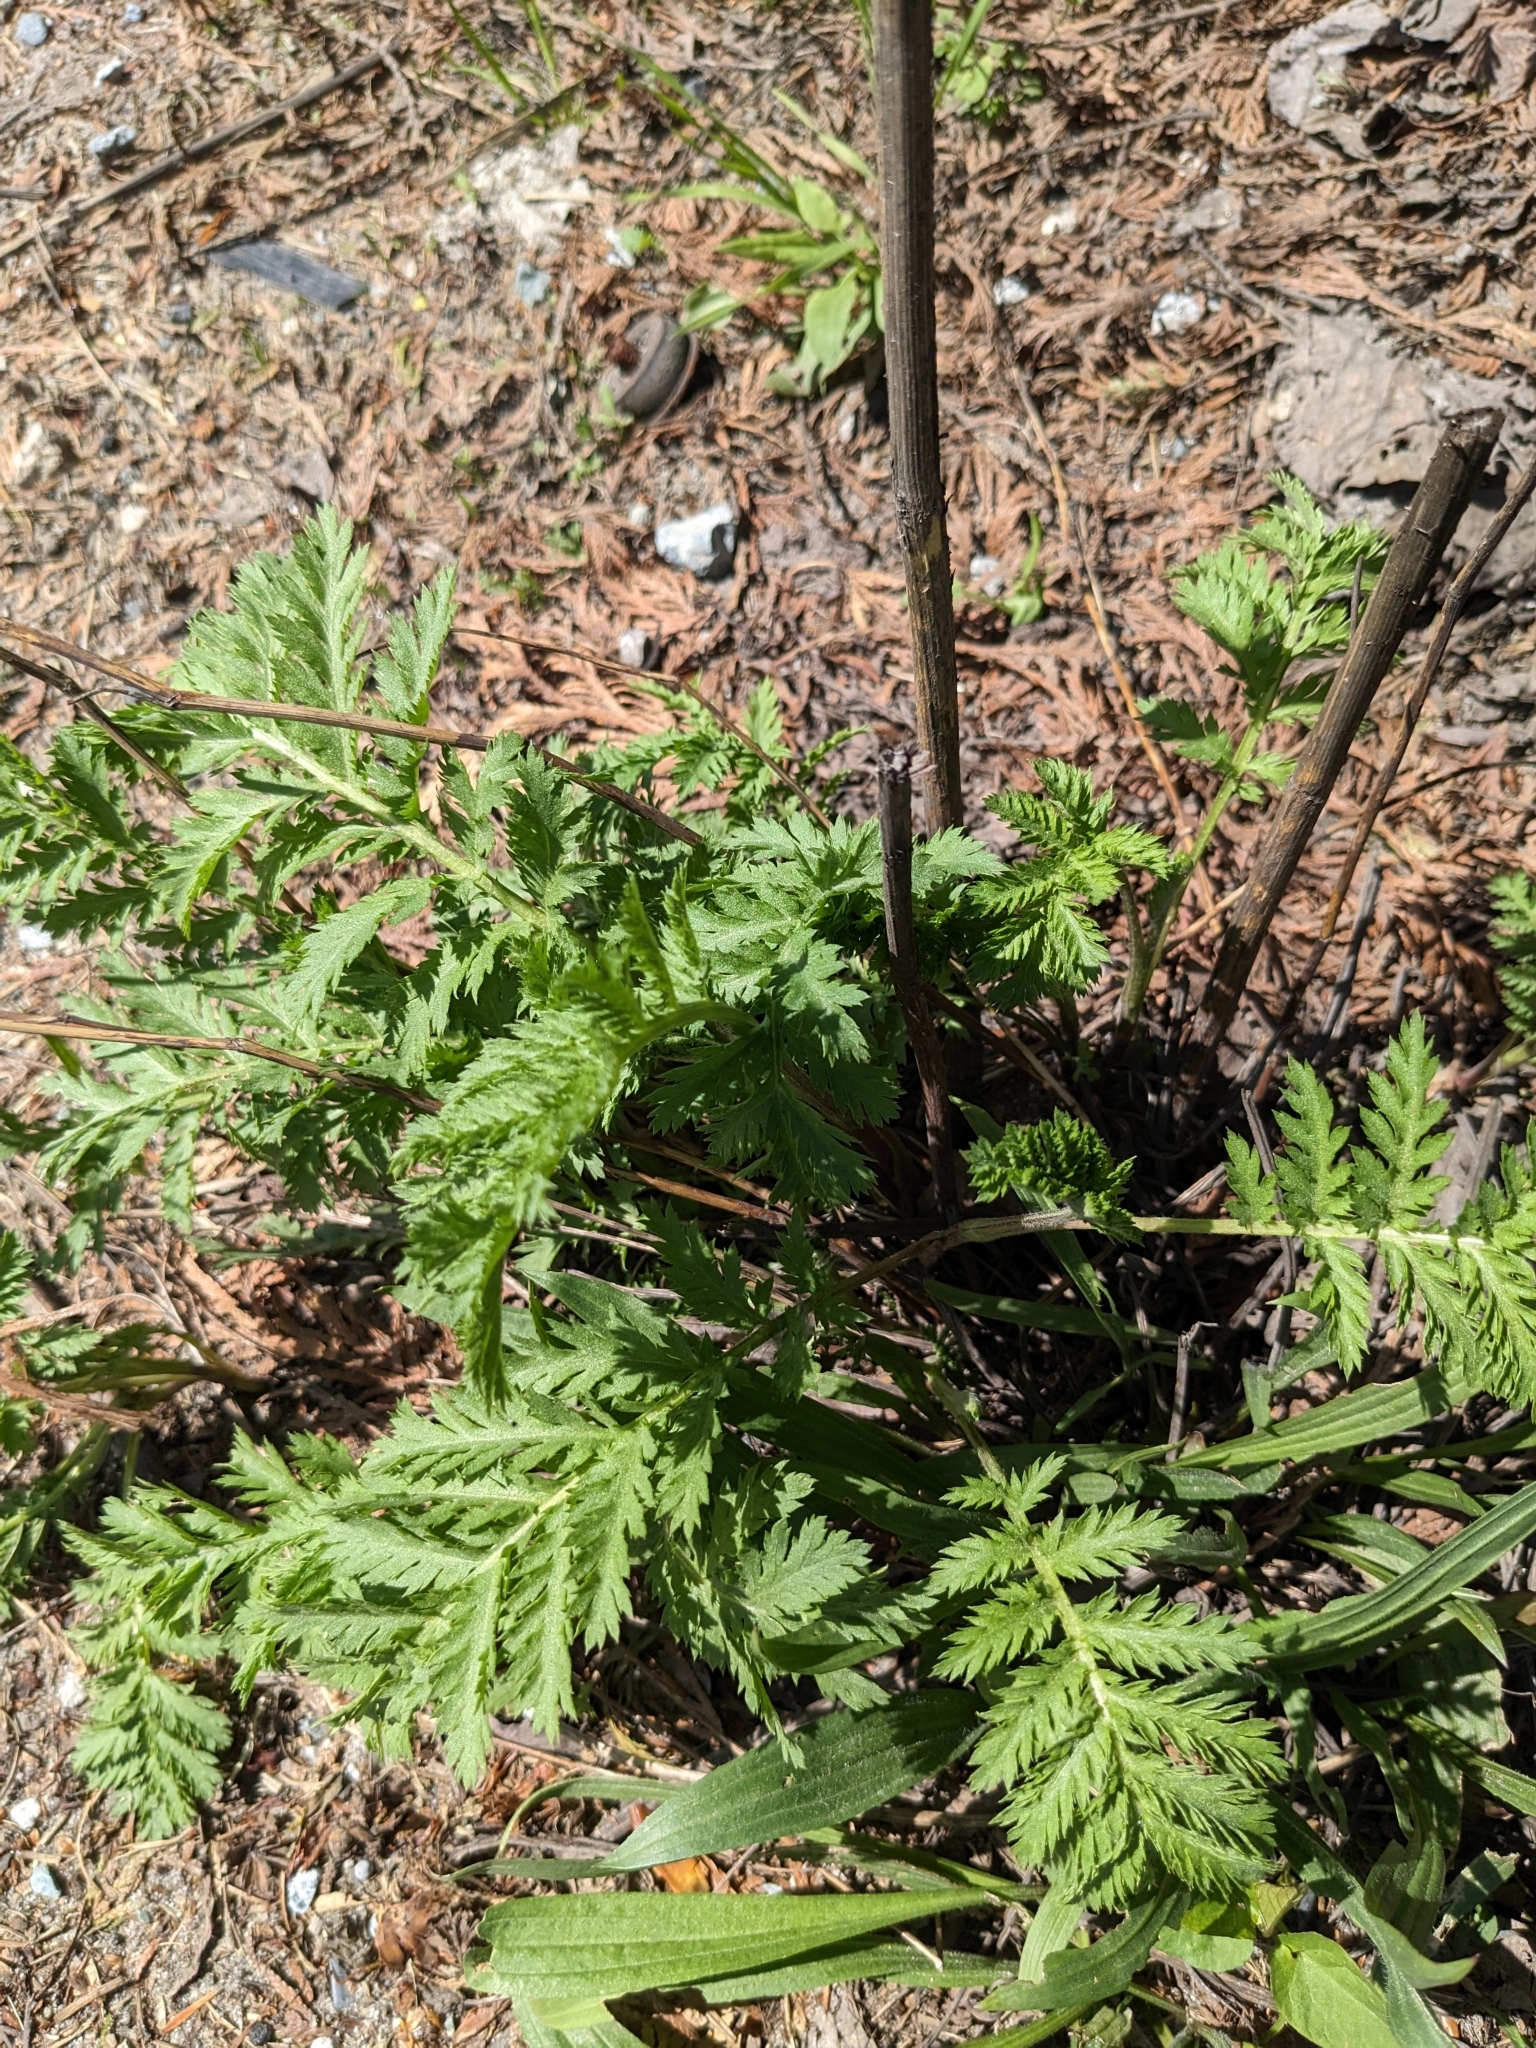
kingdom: Plantae
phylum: Tracheophyta
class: Magnoliopsida
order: Asterales
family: Asteraceae
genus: Tanacetum
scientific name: Tanacetum vulgare
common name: Common tansy
